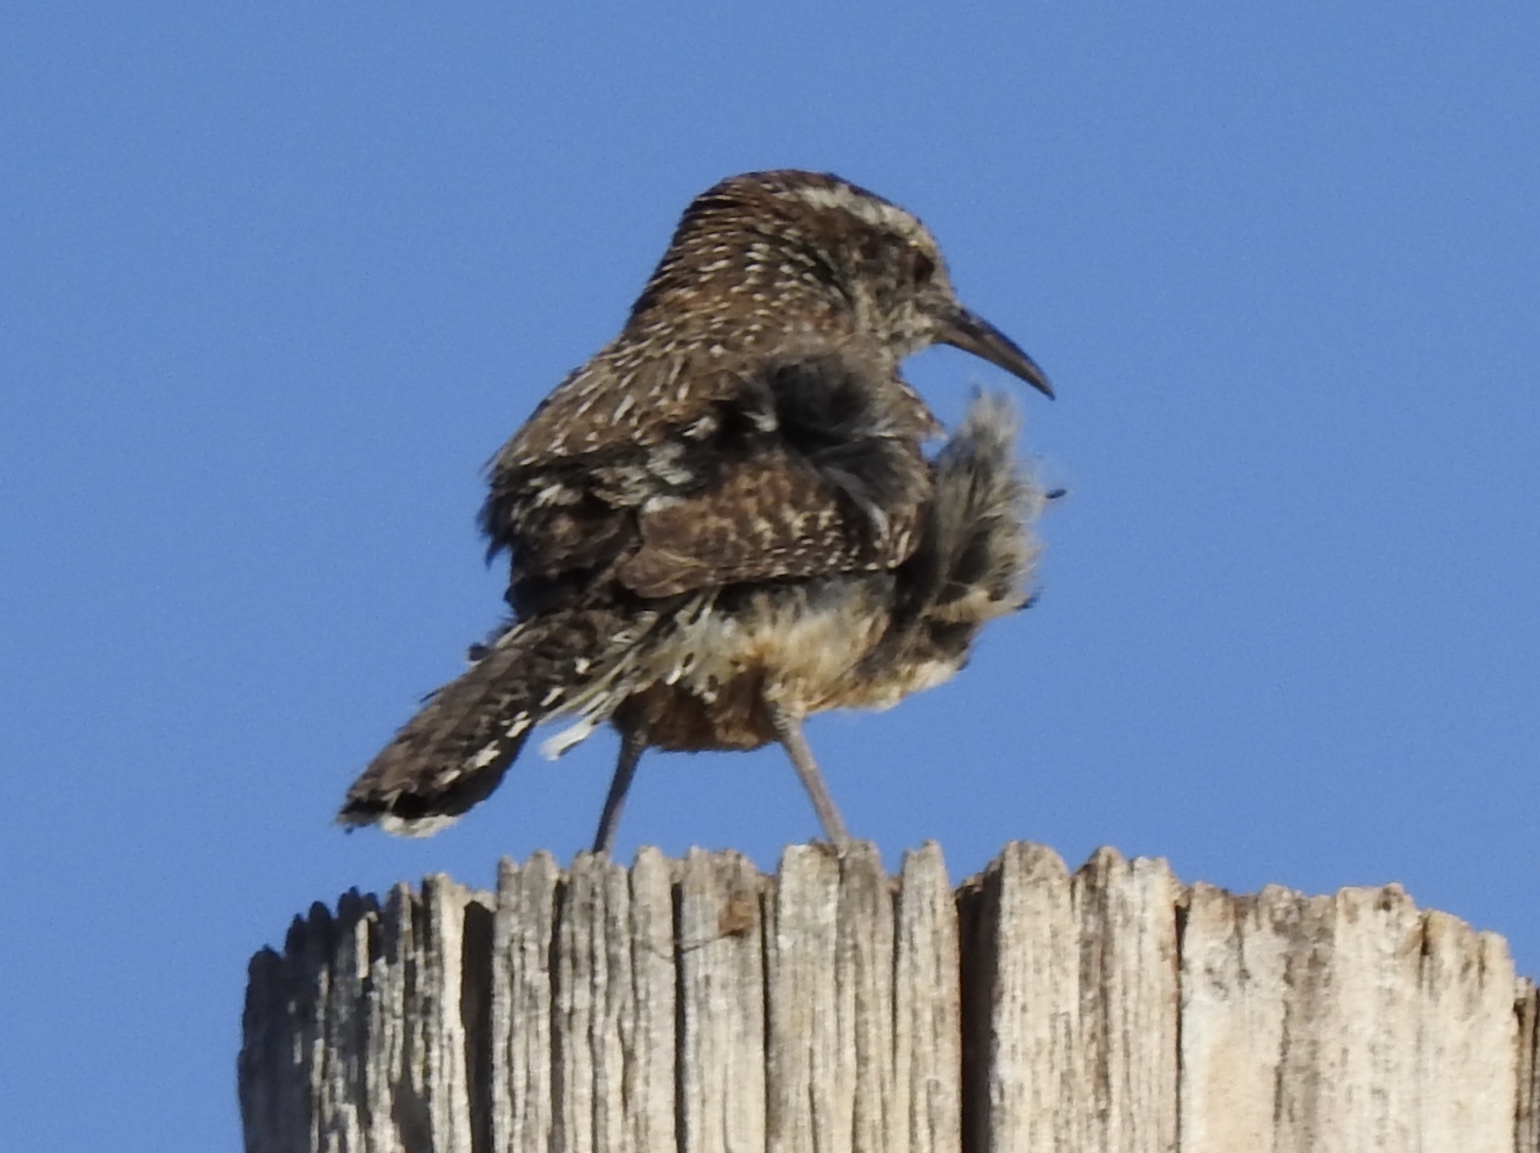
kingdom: Animalia
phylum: Chordata
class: Aves
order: Passeriformes
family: Troglodytidae
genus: Campylorhynchus
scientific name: Campylorhynchus brunneicapillus
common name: Cactus wren
